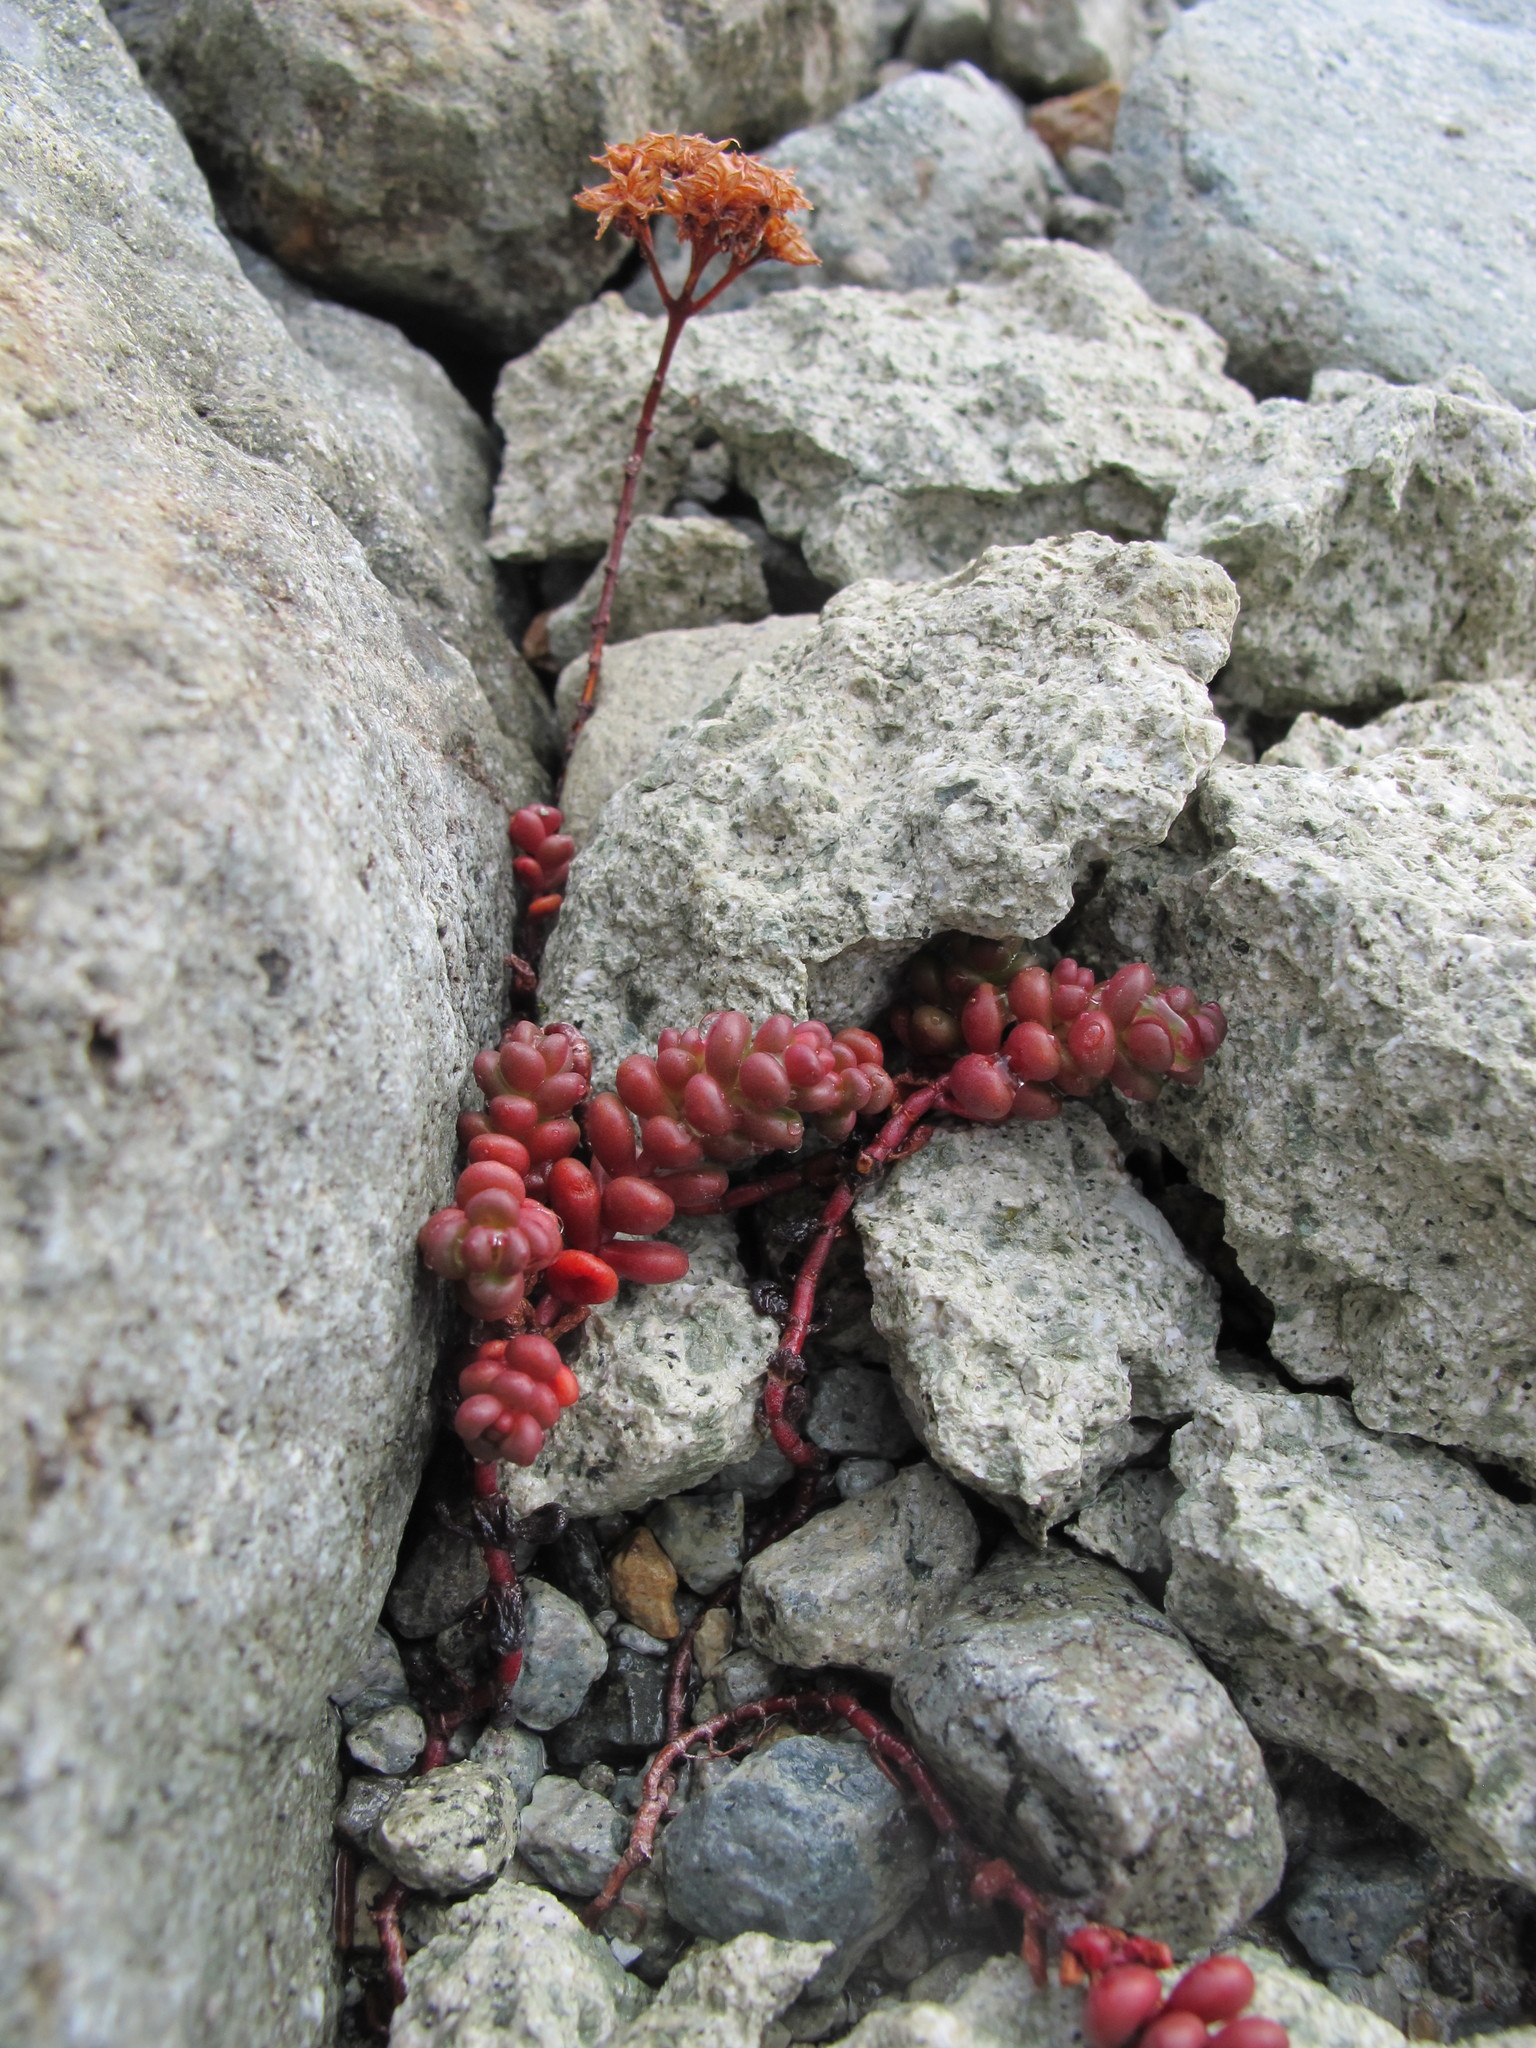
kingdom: Plantae
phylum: Tracheophyta
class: Magnoliopsida
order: Saxifragales
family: Crassulaceae
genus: Sedum
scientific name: Sedum divergens
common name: Cascade stonecrop
